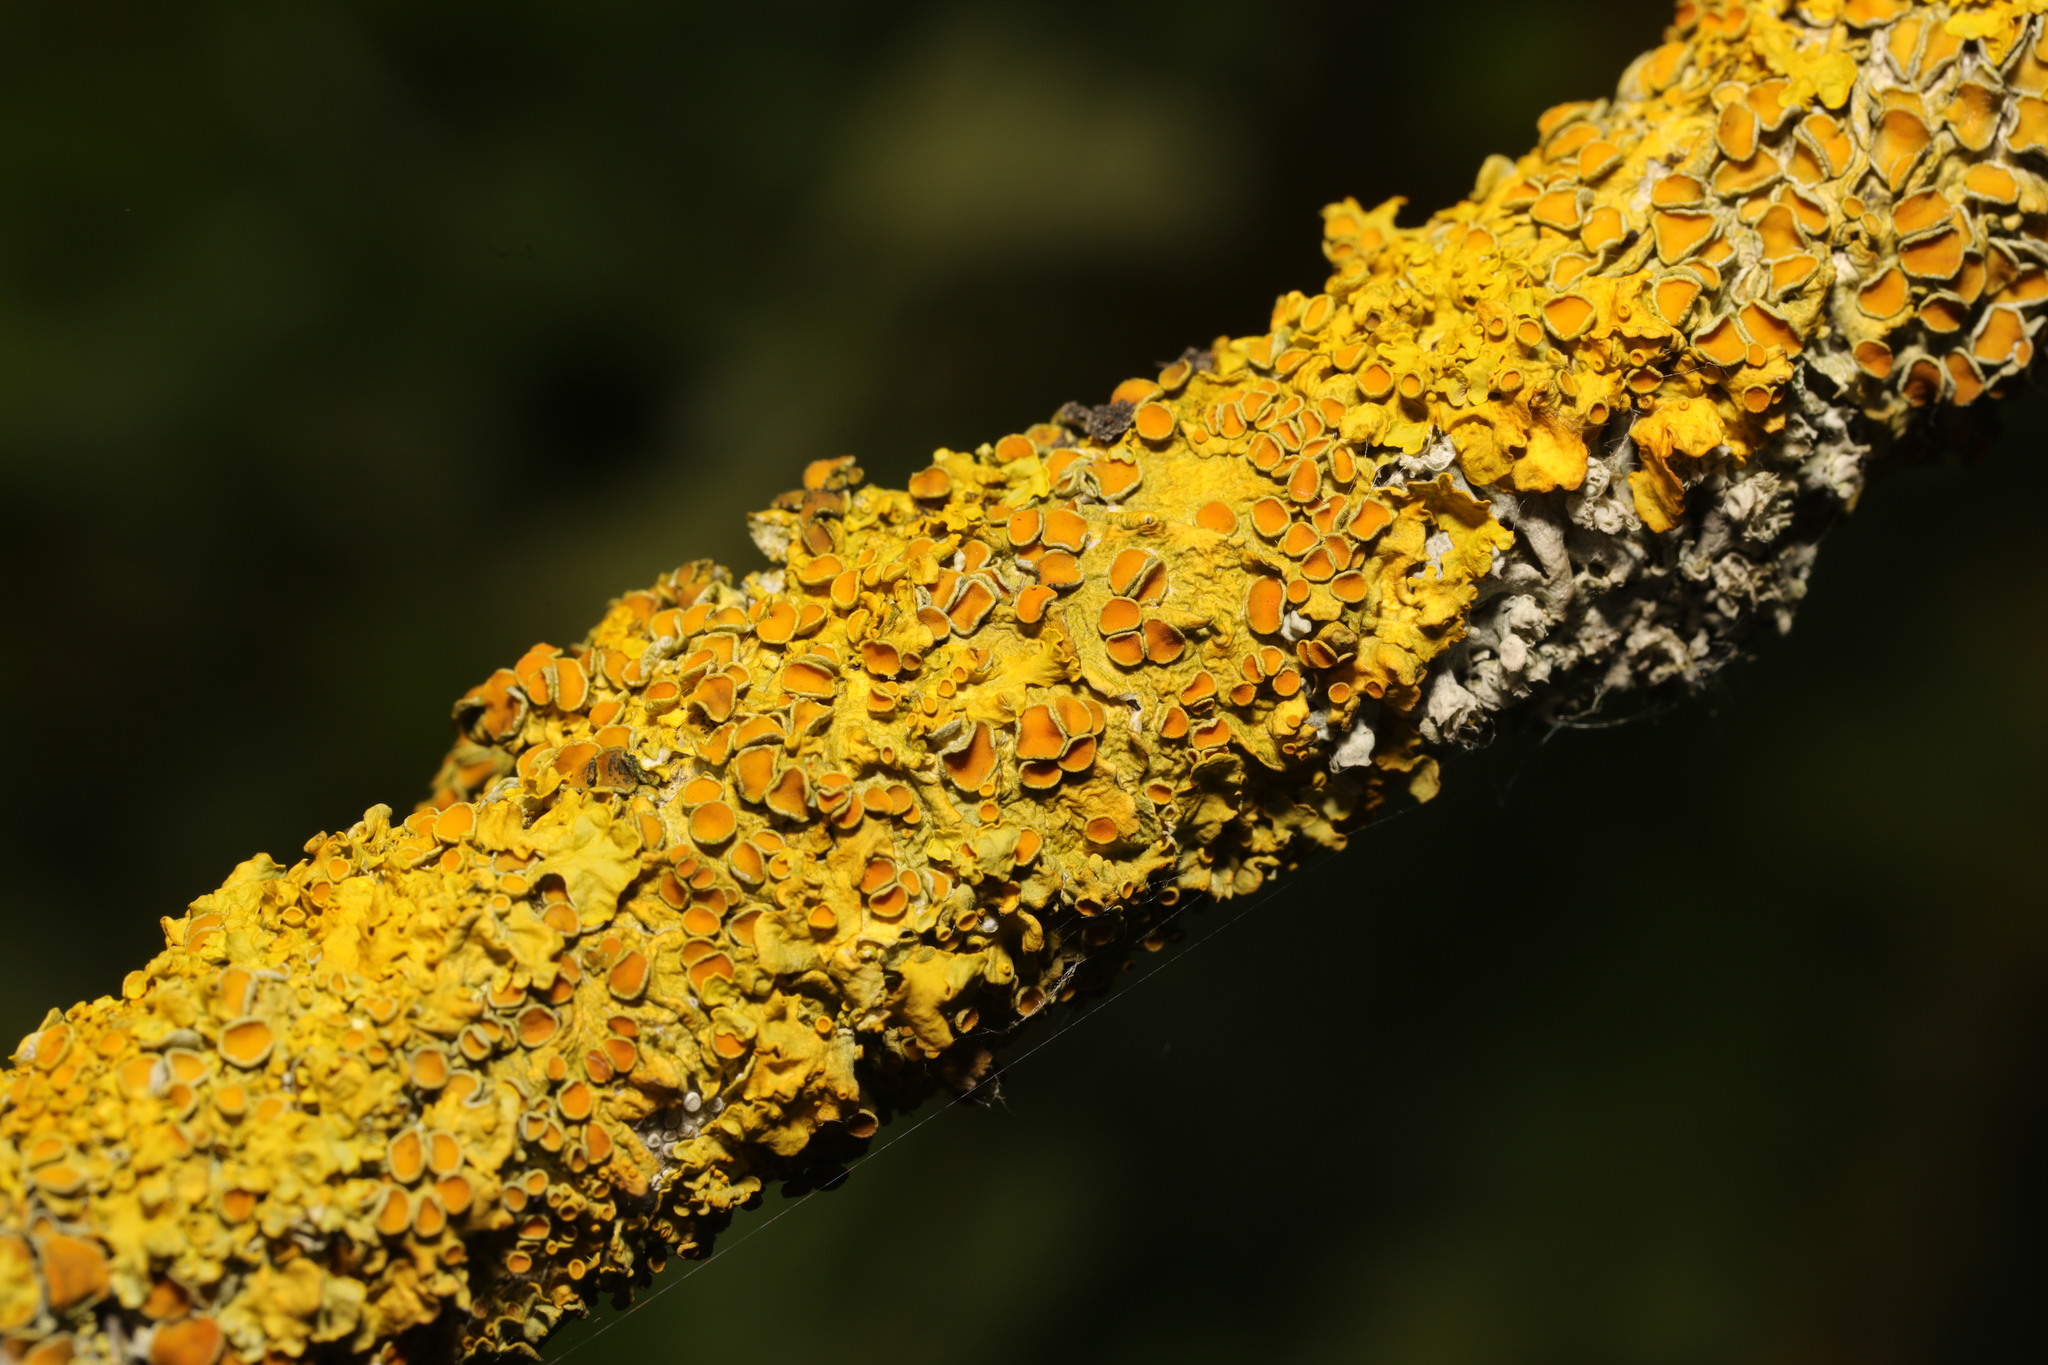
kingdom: Fungi
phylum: Ascomycota
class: Lecanoromycetes
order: Teloschistales
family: Teloschistaceae
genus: Xanthoria
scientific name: Xanthoria parietina
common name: Common orange lichen
